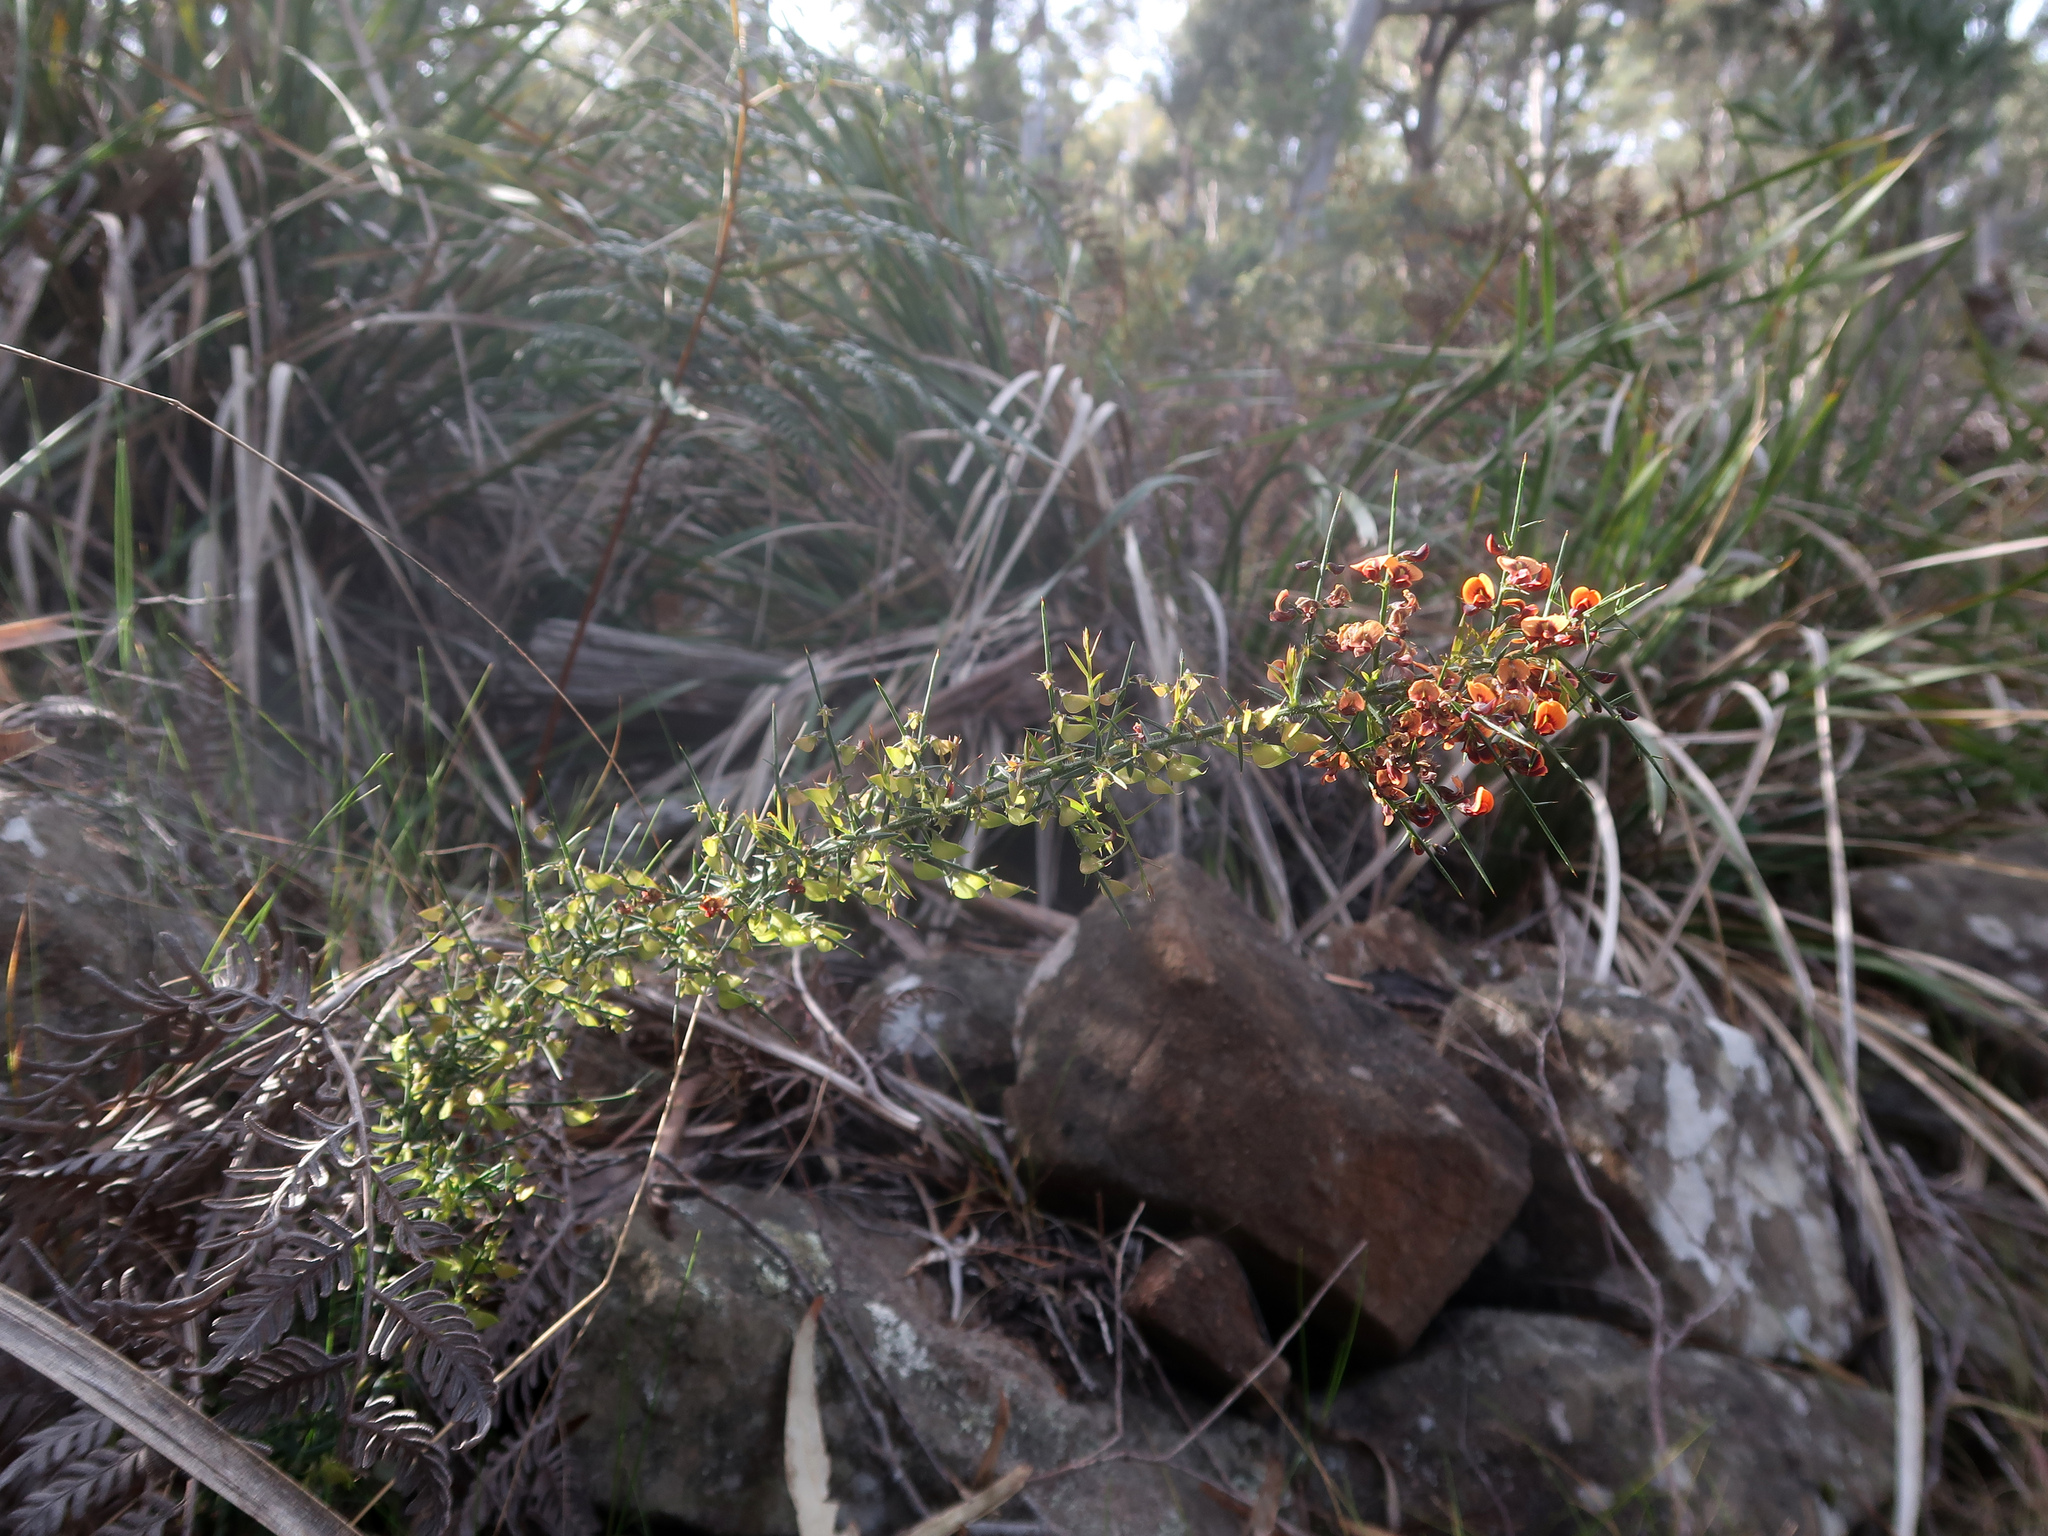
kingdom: Plantae
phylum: Tracheophyta
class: Magnoliopsida
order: Fabales
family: Fabaceae
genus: Daviesia
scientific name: Daviesia ulicifolia
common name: Gorse bitter-pea
